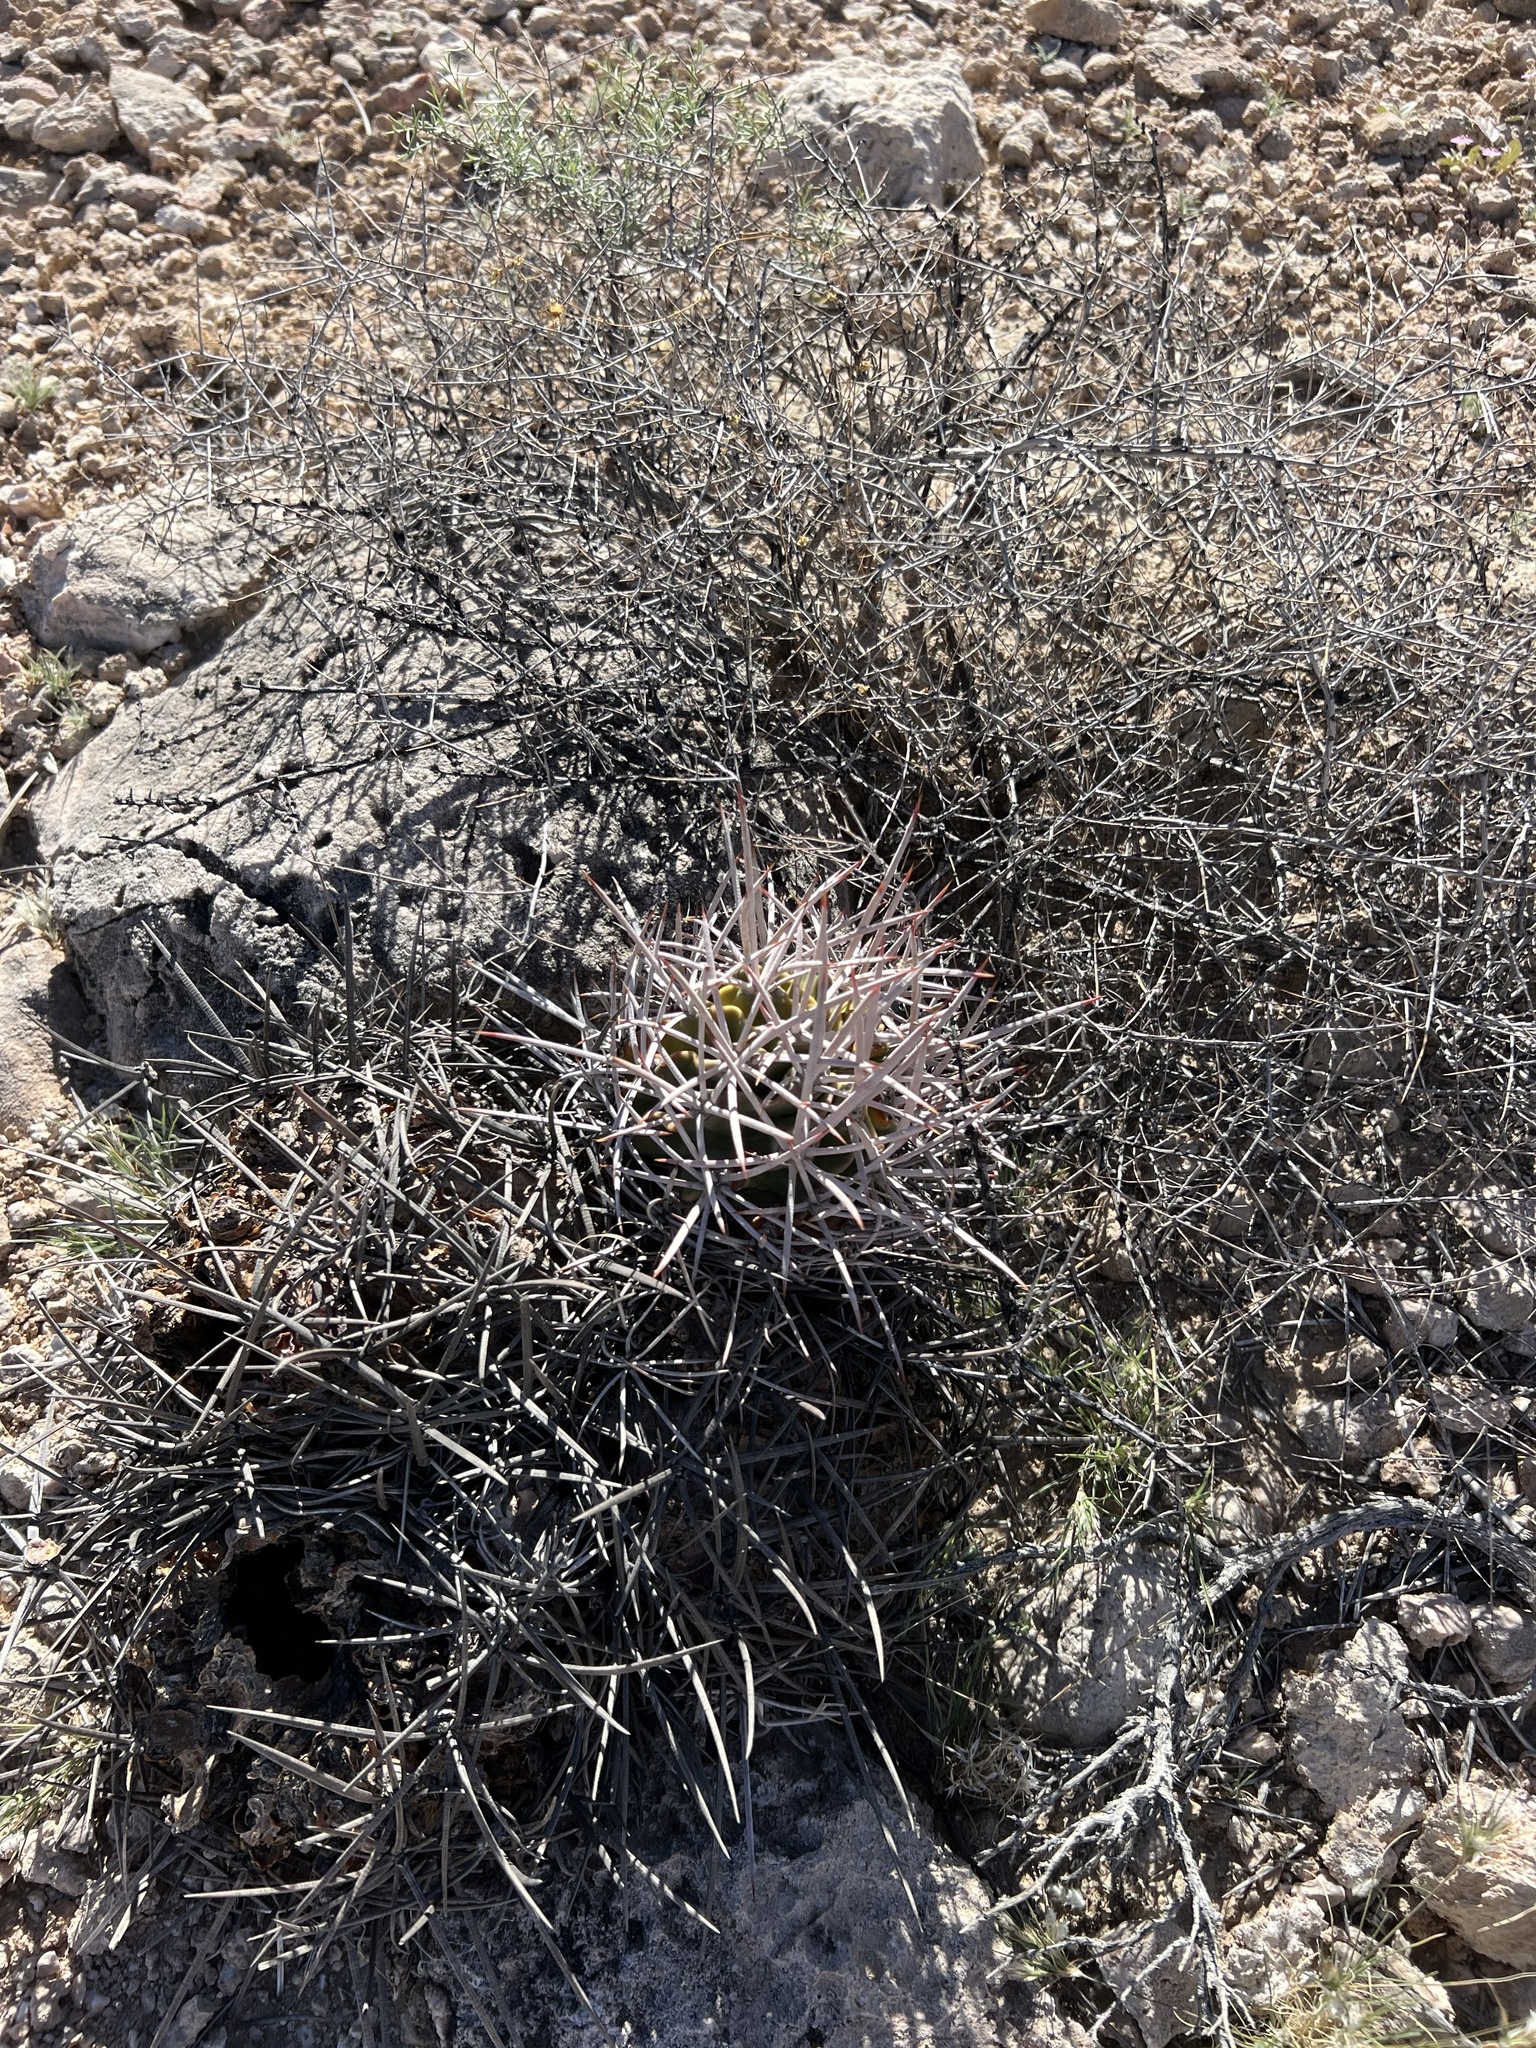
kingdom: Plantae
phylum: Tracheophyta
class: Magnoliopsida
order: Caryophyllales
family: Cactaceae
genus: Echinocactus
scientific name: Echinocactus polycephalus
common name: Cottontop cactus
